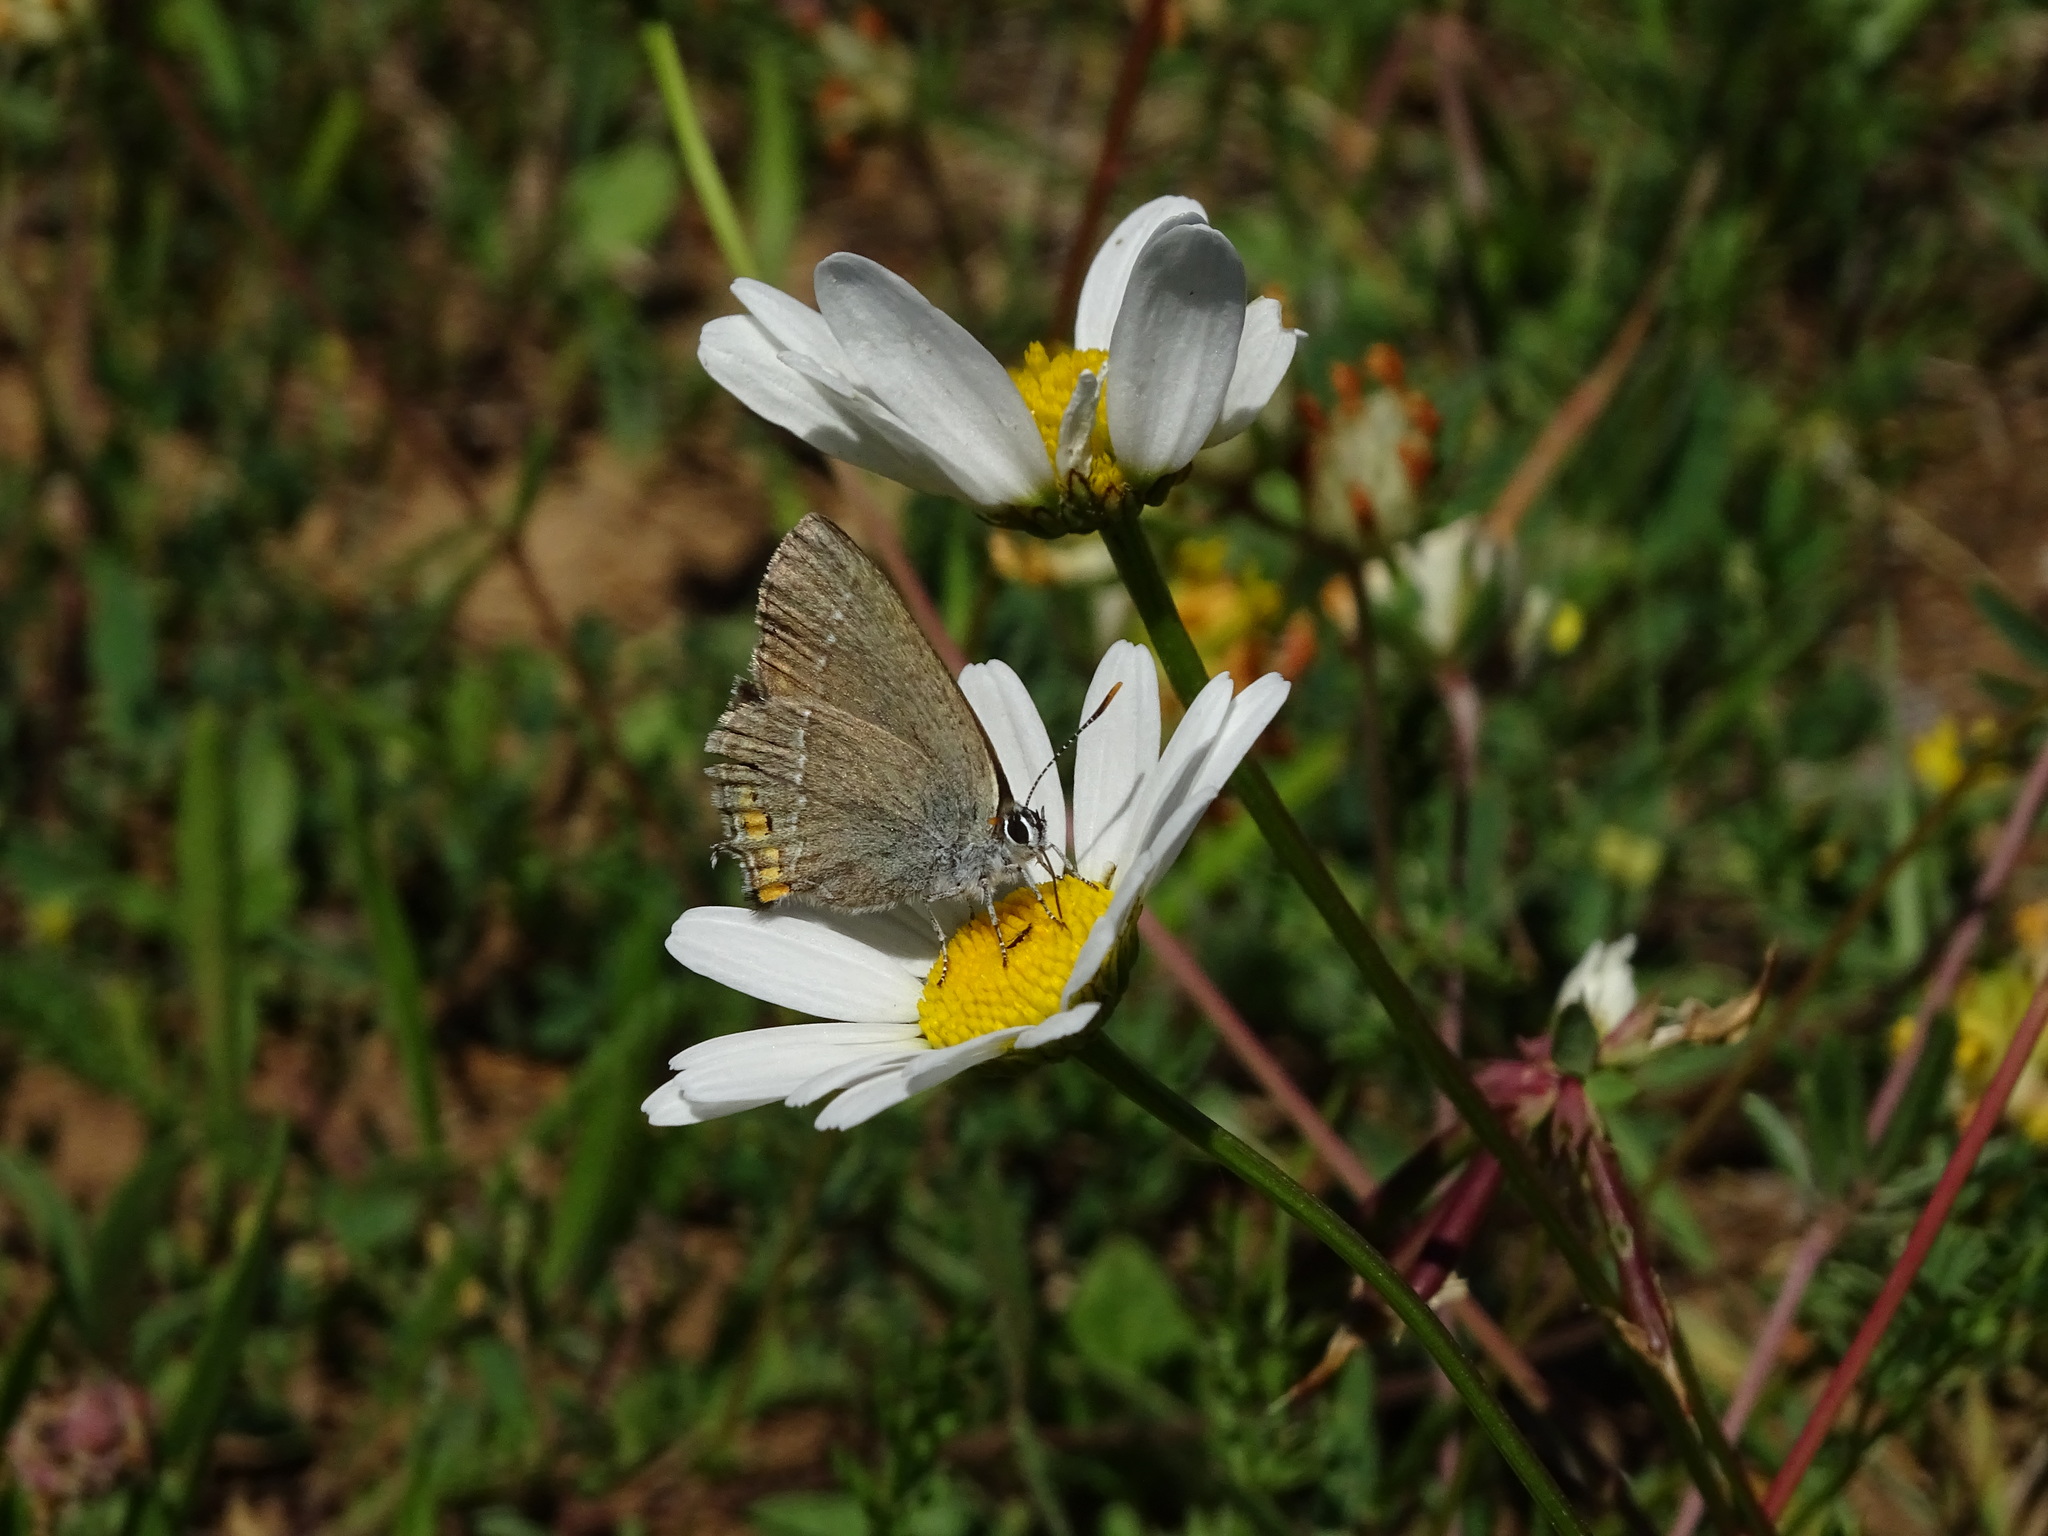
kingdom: Animalia
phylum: Arthropoda
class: Insecta
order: Lepidoptera
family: Lycaenidae
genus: Strymon
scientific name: Strymon acaciae
